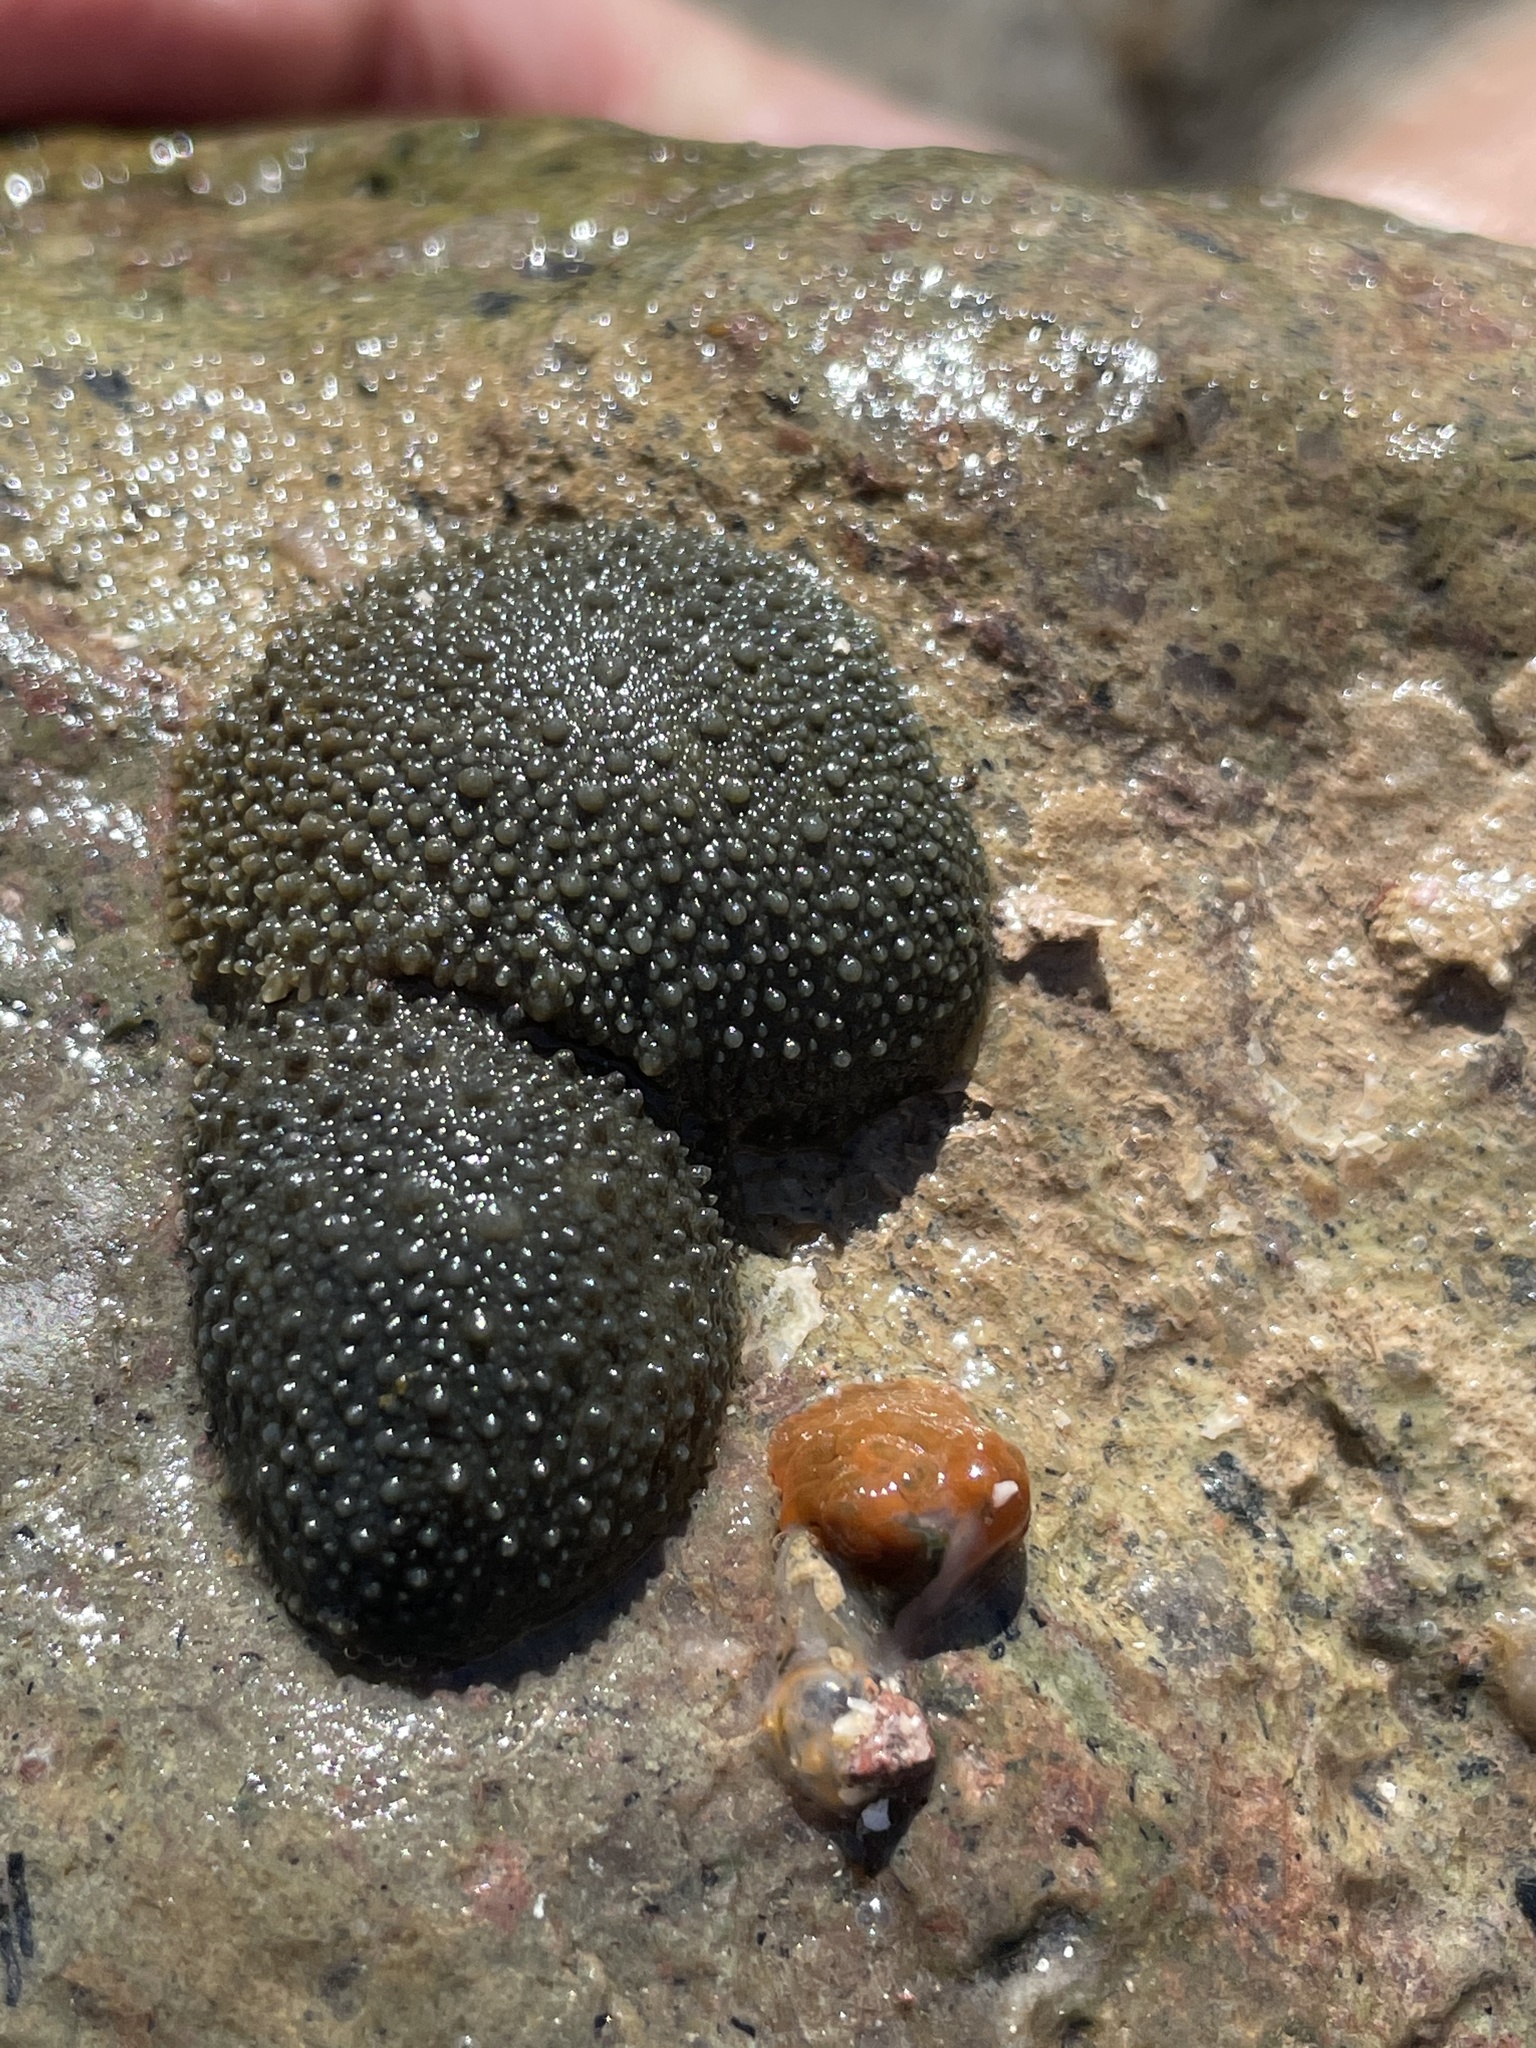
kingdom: Animalia
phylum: Mollusca
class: Gastropoda
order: Systellommatophora
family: Onchidiidae
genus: Onchidella
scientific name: Onchidella binneyi
